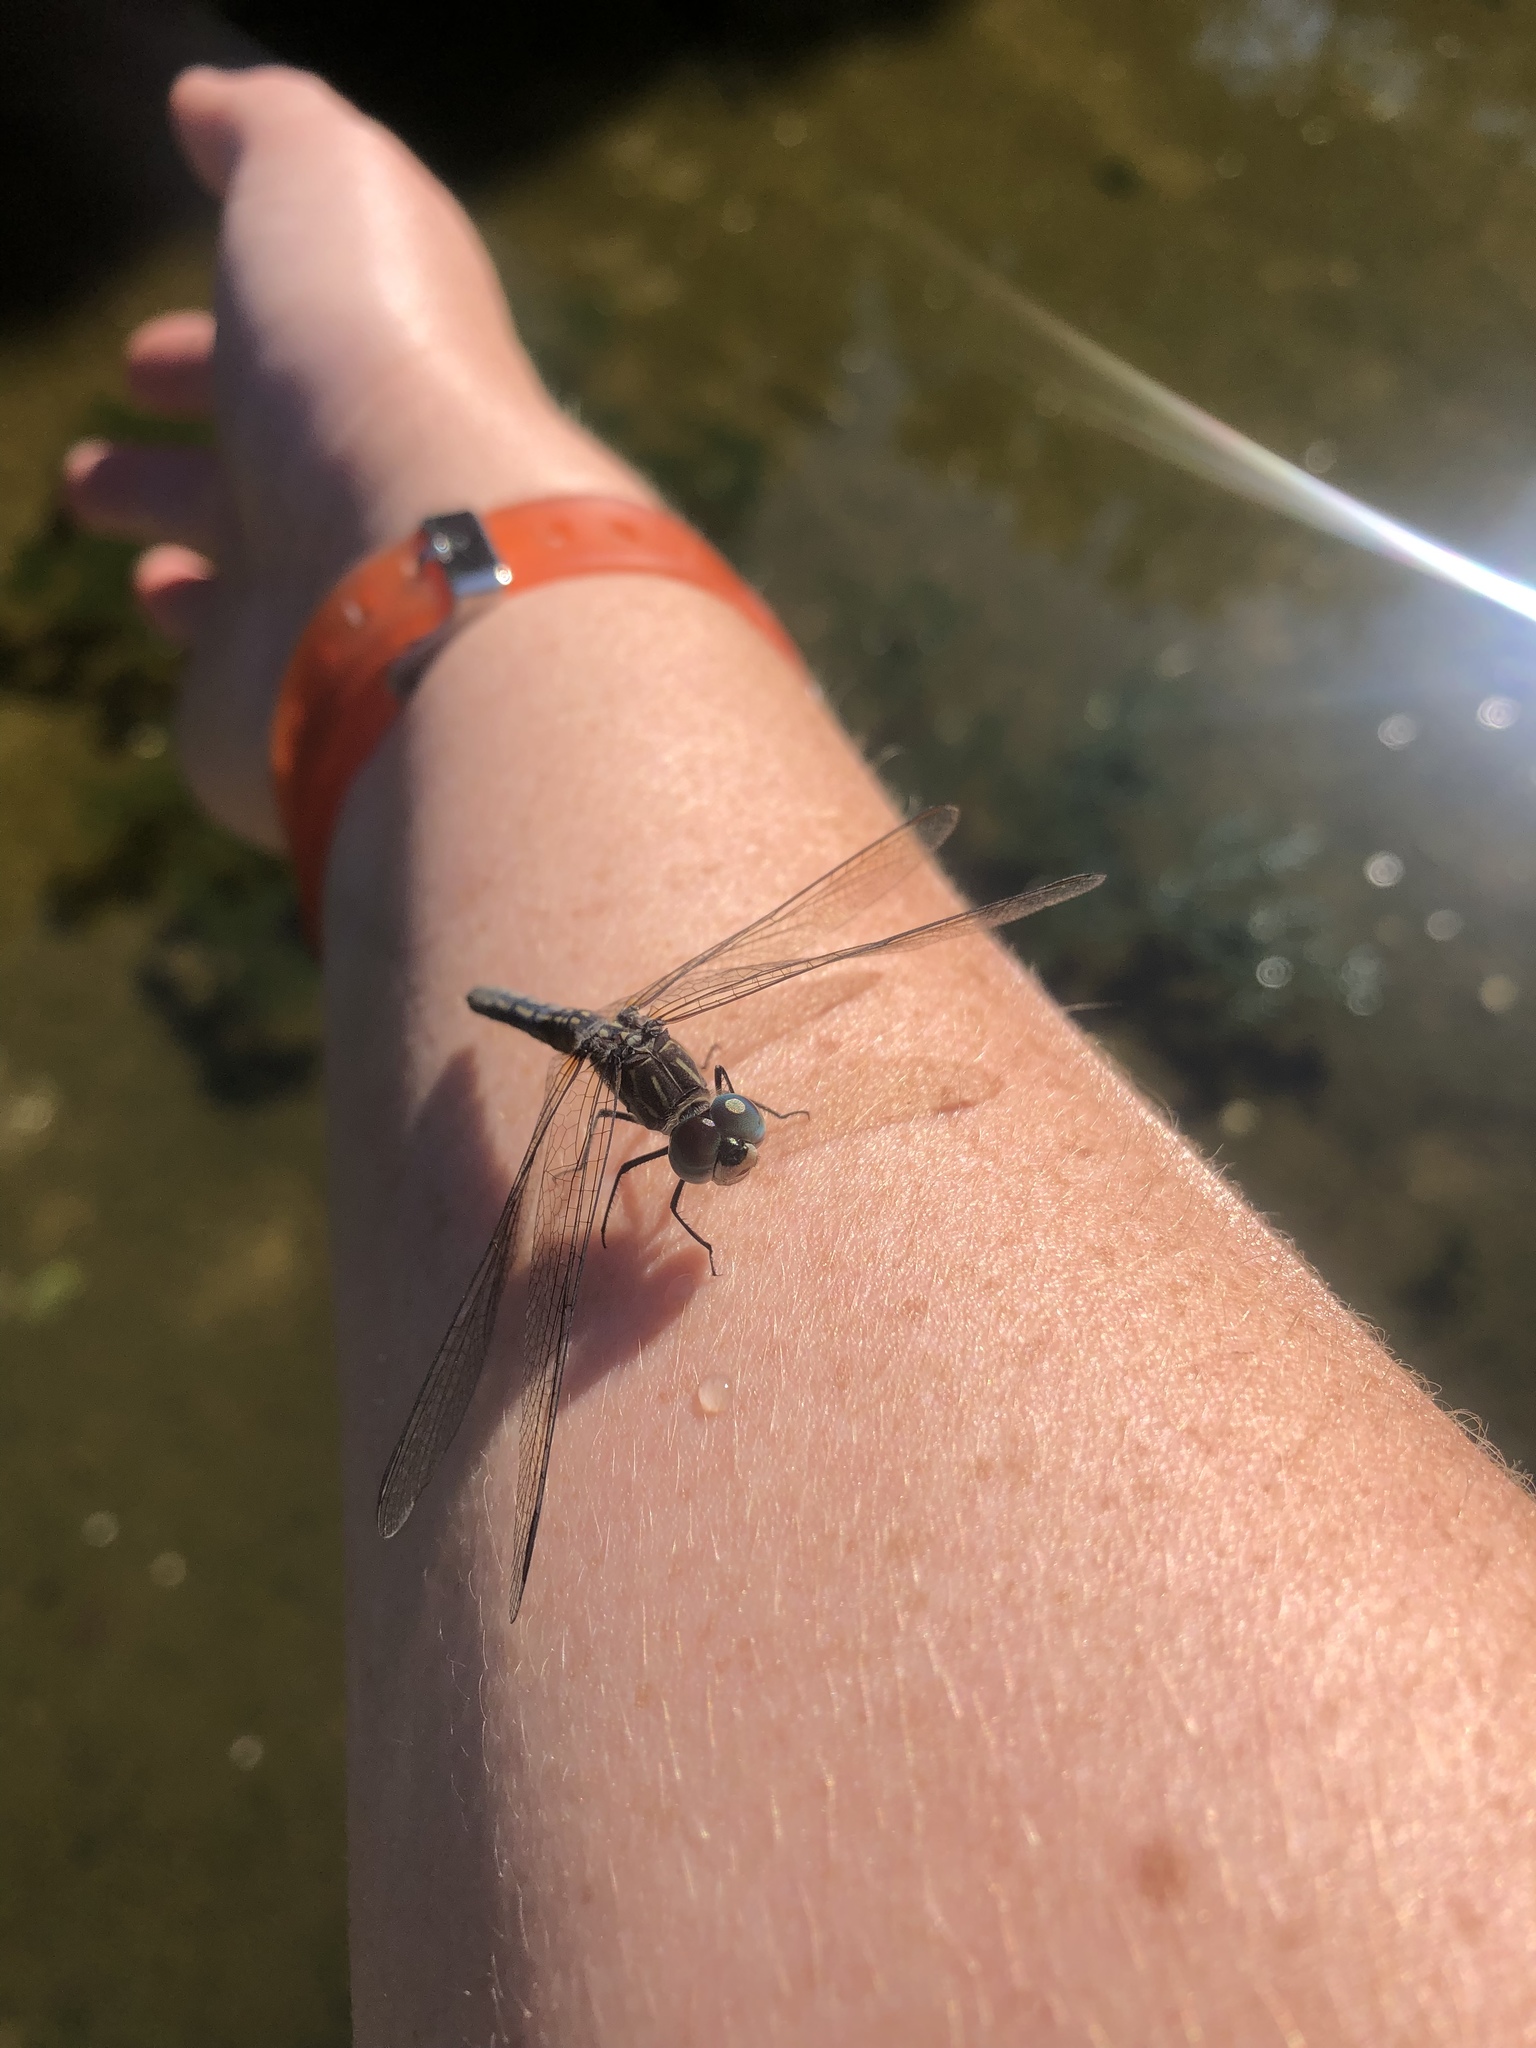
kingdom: Animalia
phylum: Arthropoda
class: Insecta
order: Odonata
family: Libellulidae
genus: Pachydiplax
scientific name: Pachydiplax longipennis
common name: Blue dasher
